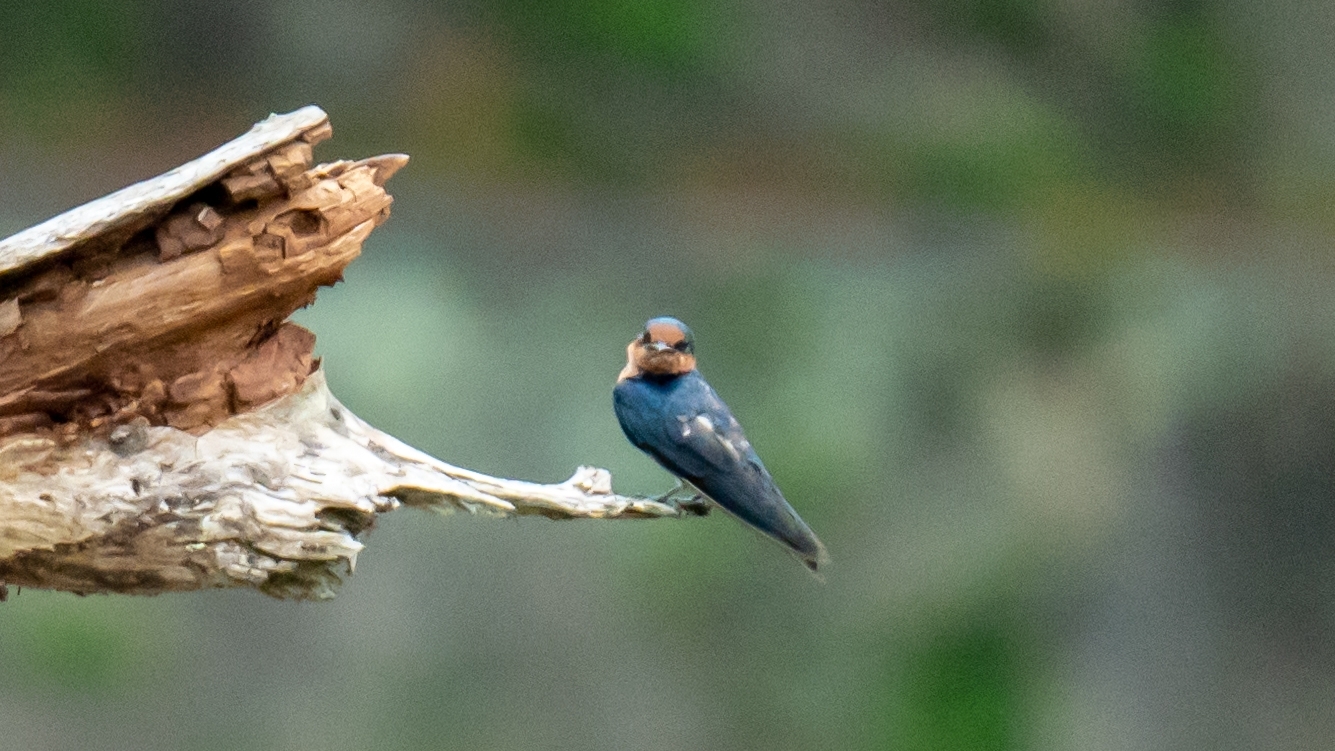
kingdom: Animalia
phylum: Chordata
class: Aves
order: Passeriformes
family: Hirundinidae
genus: Hirundo
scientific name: Hirundo tahitica
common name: Pacific swallow
